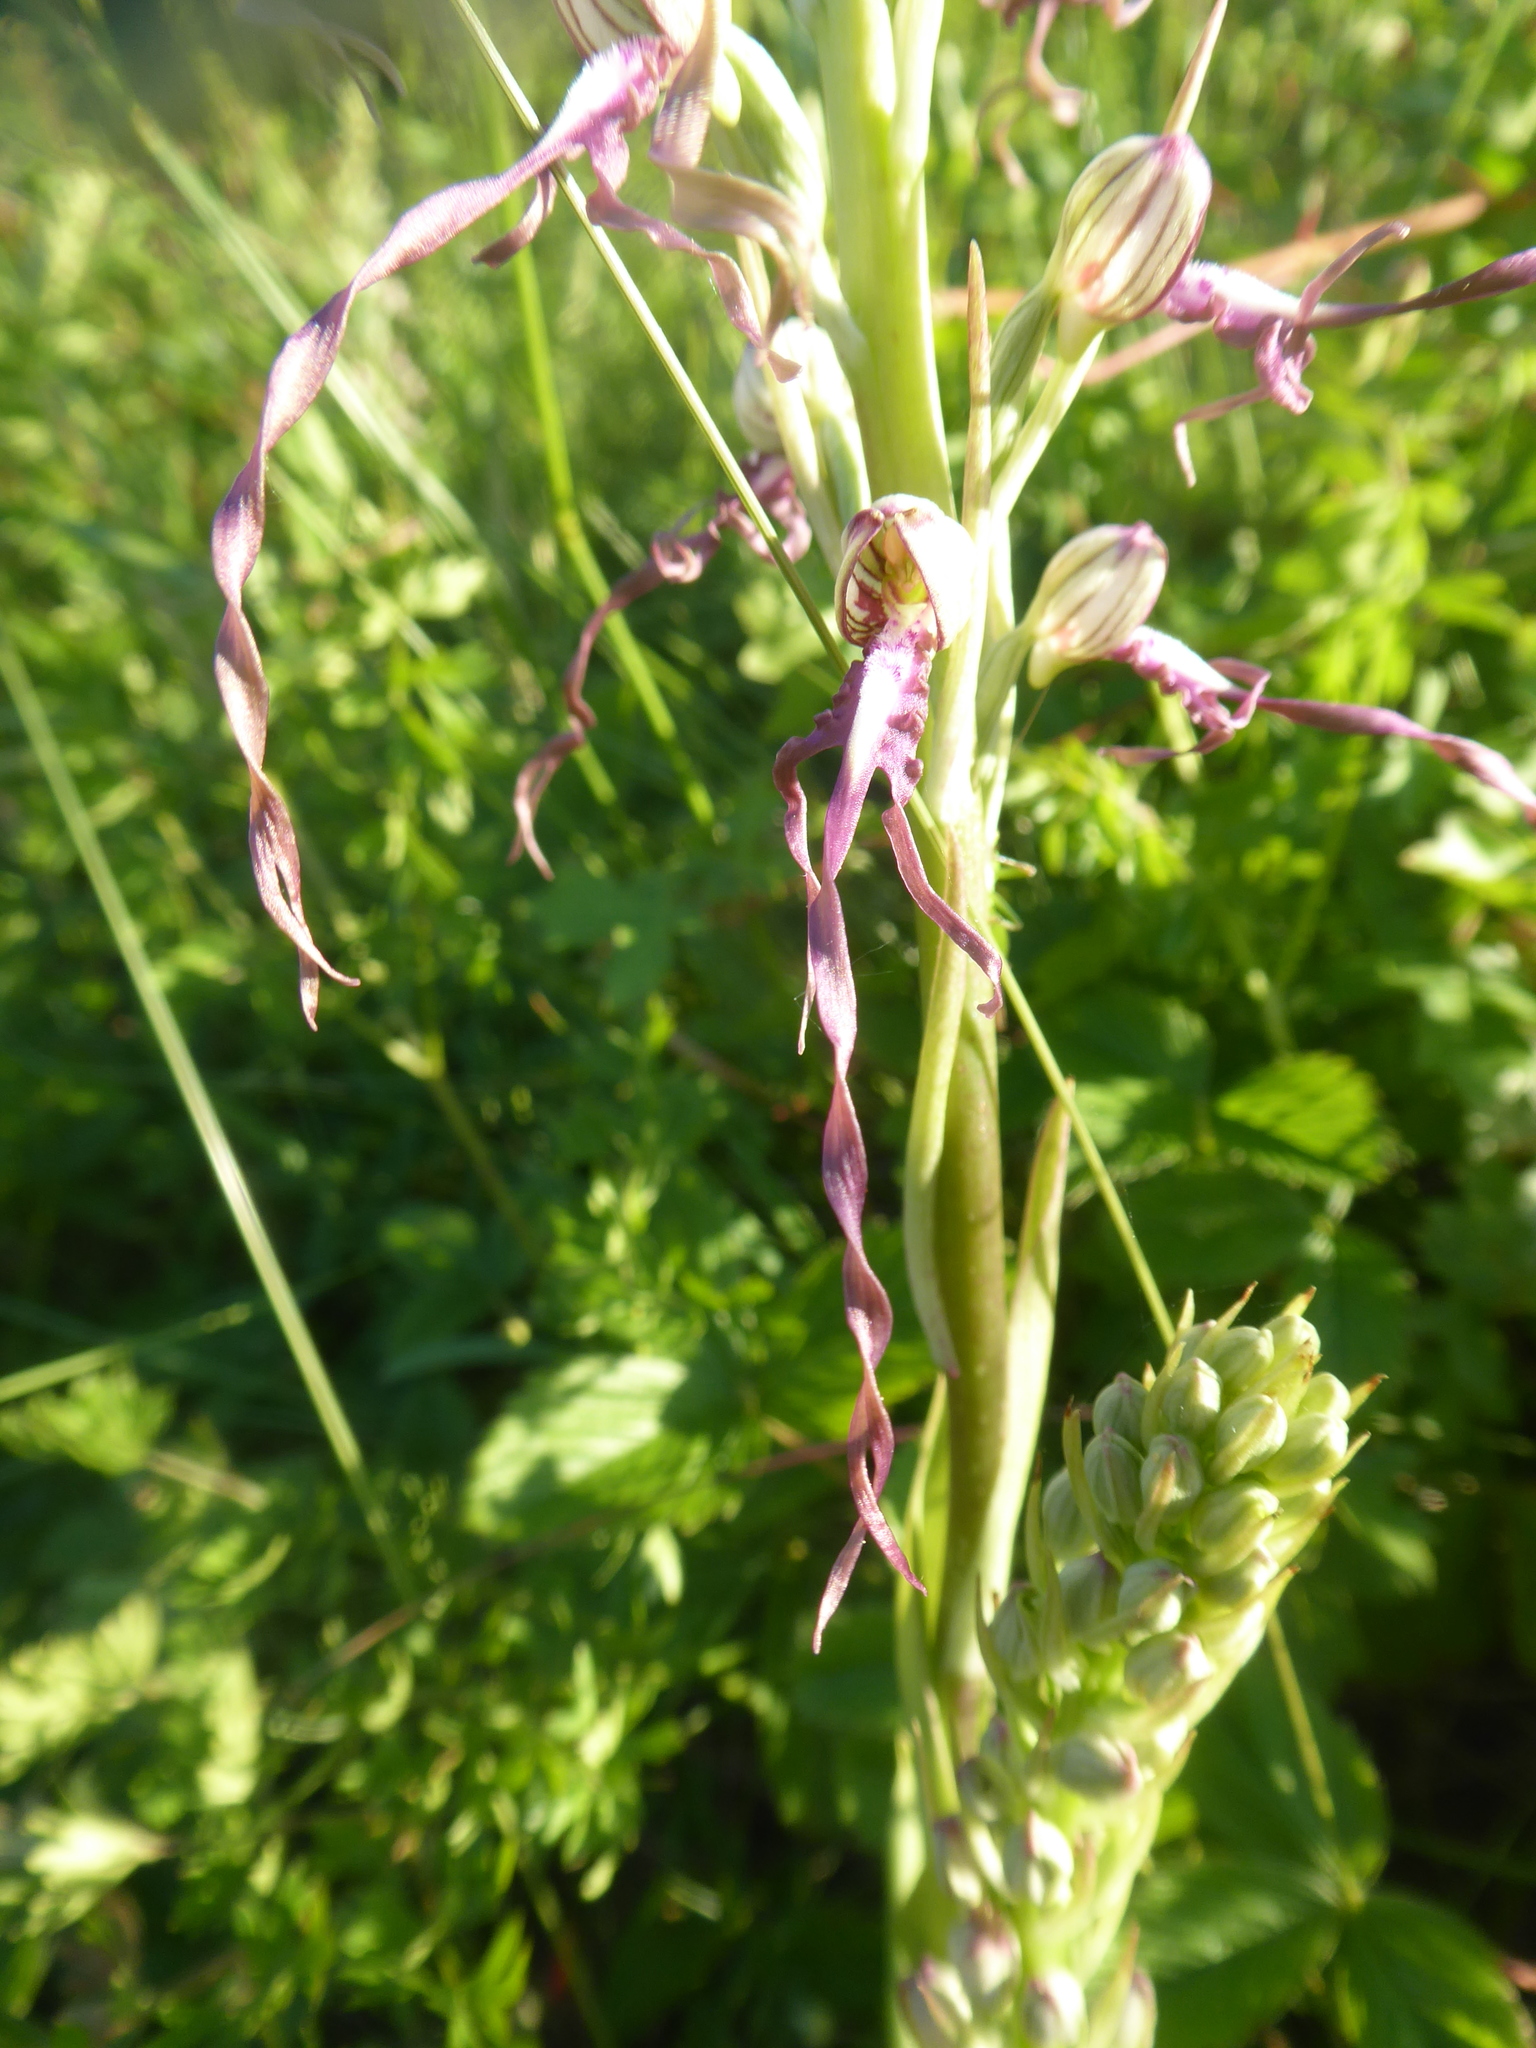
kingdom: Plantae
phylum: Tracheophyta
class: Liliopsida
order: Asparagales
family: Orchidaceae
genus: Himantoglossum
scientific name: Himantoglossum adriaticum
